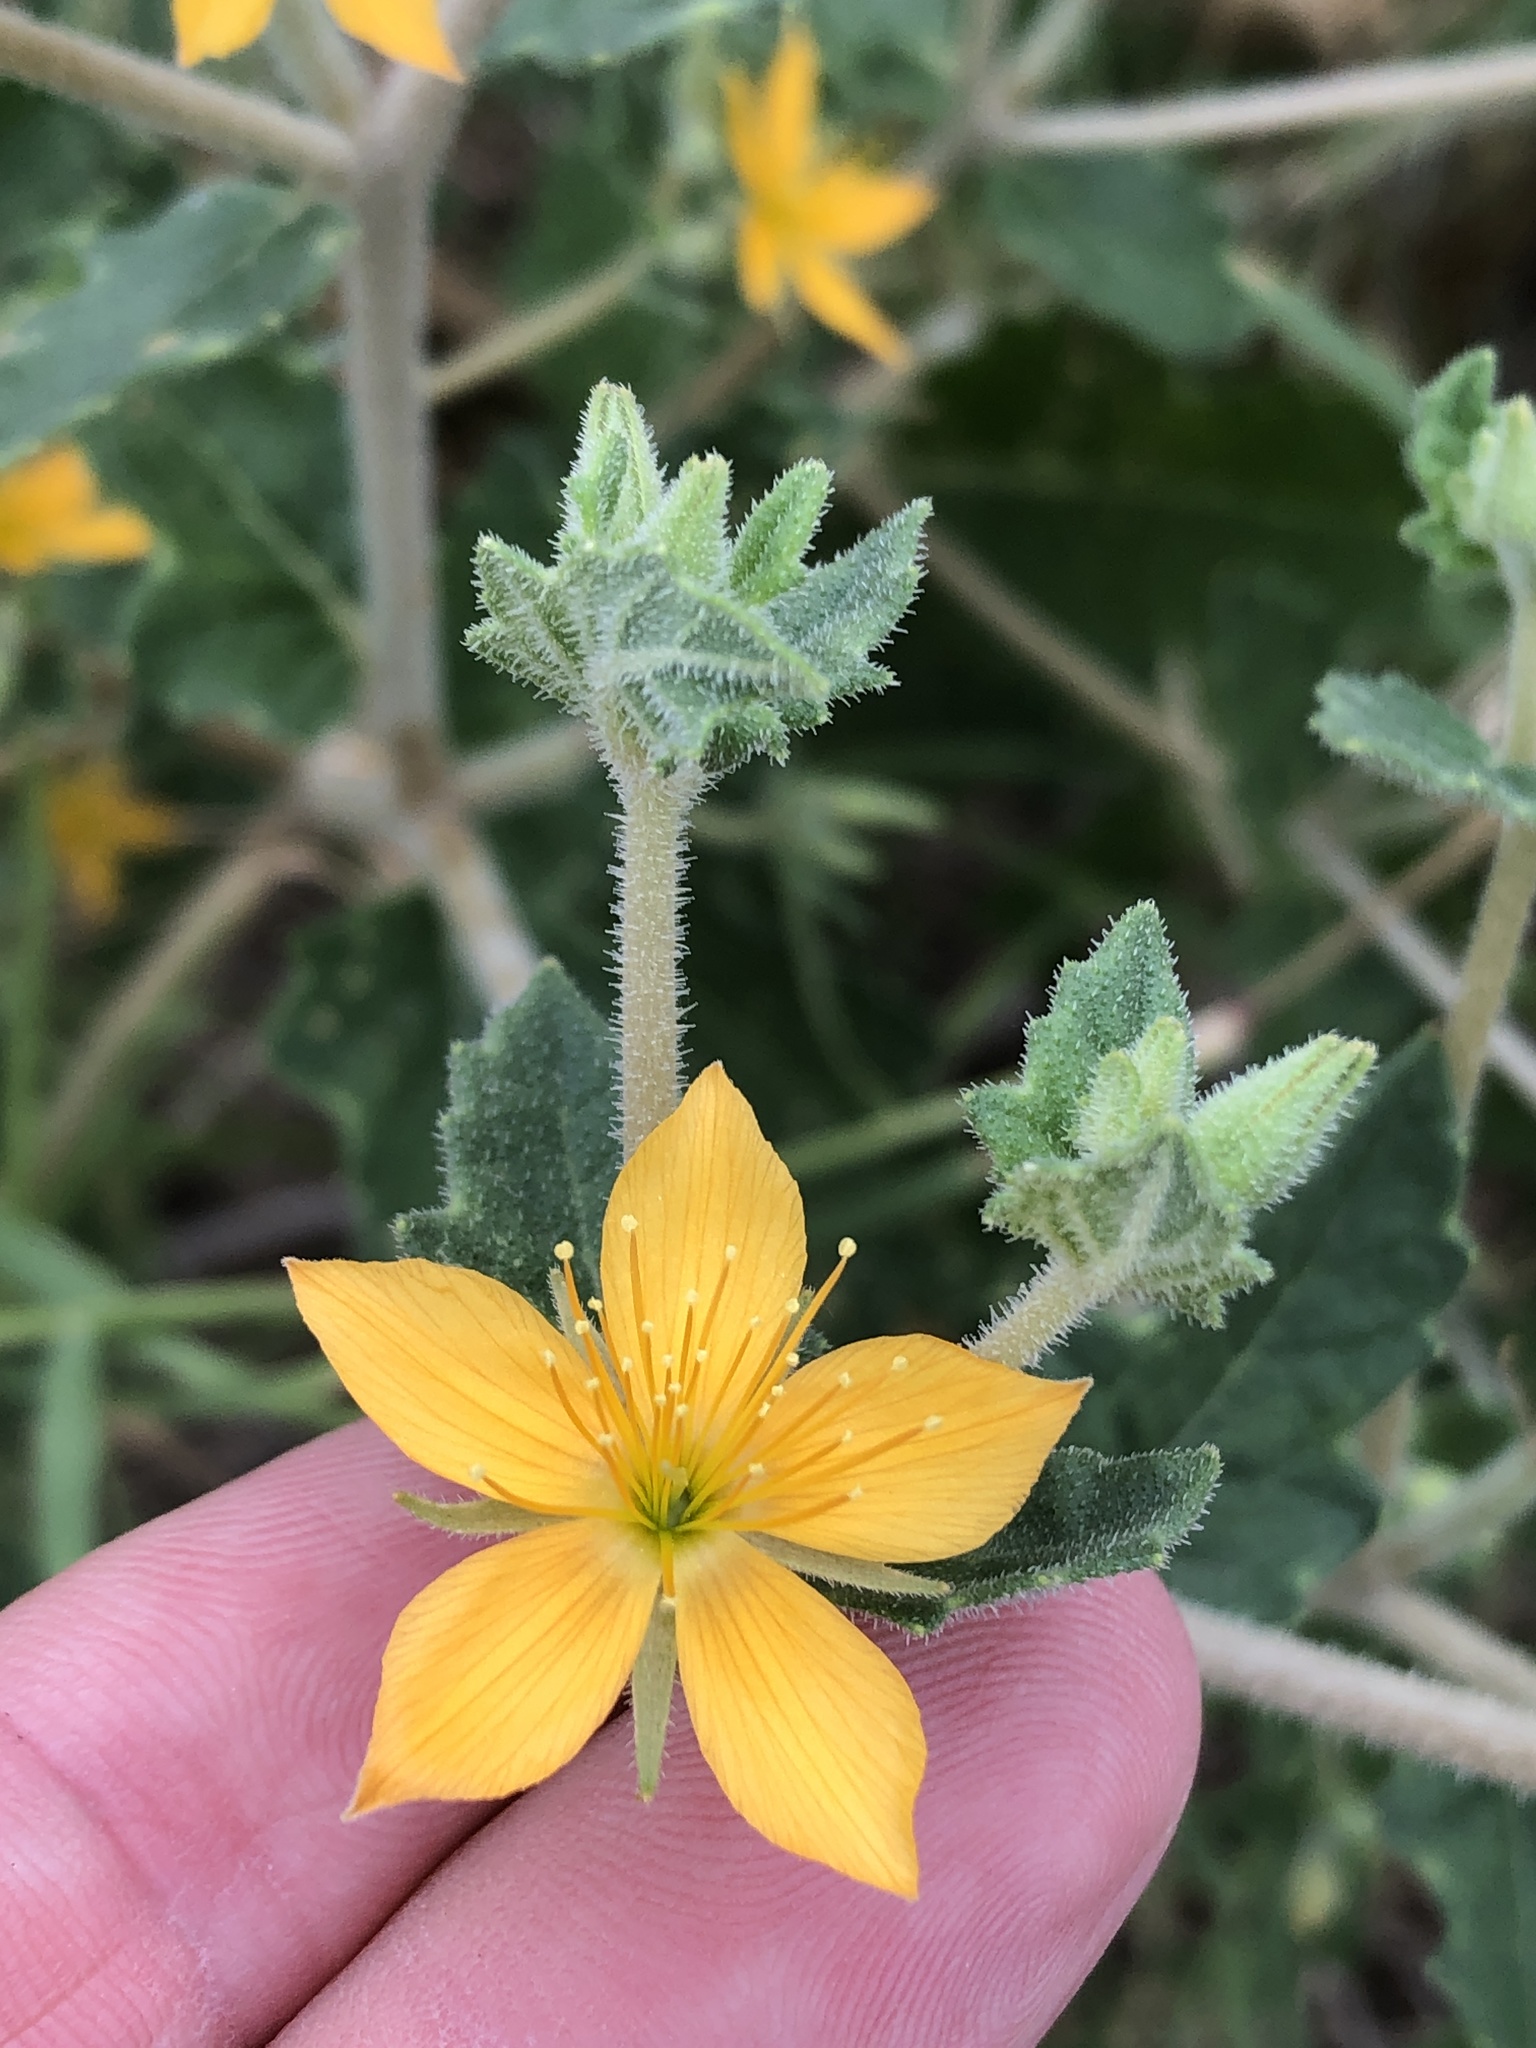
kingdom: Plantae
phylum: Tracheophyta
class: Magnoliopsida
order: Cornales
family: Loasaceae
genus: Mentzelia
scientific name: Mentzelia oligosperma
